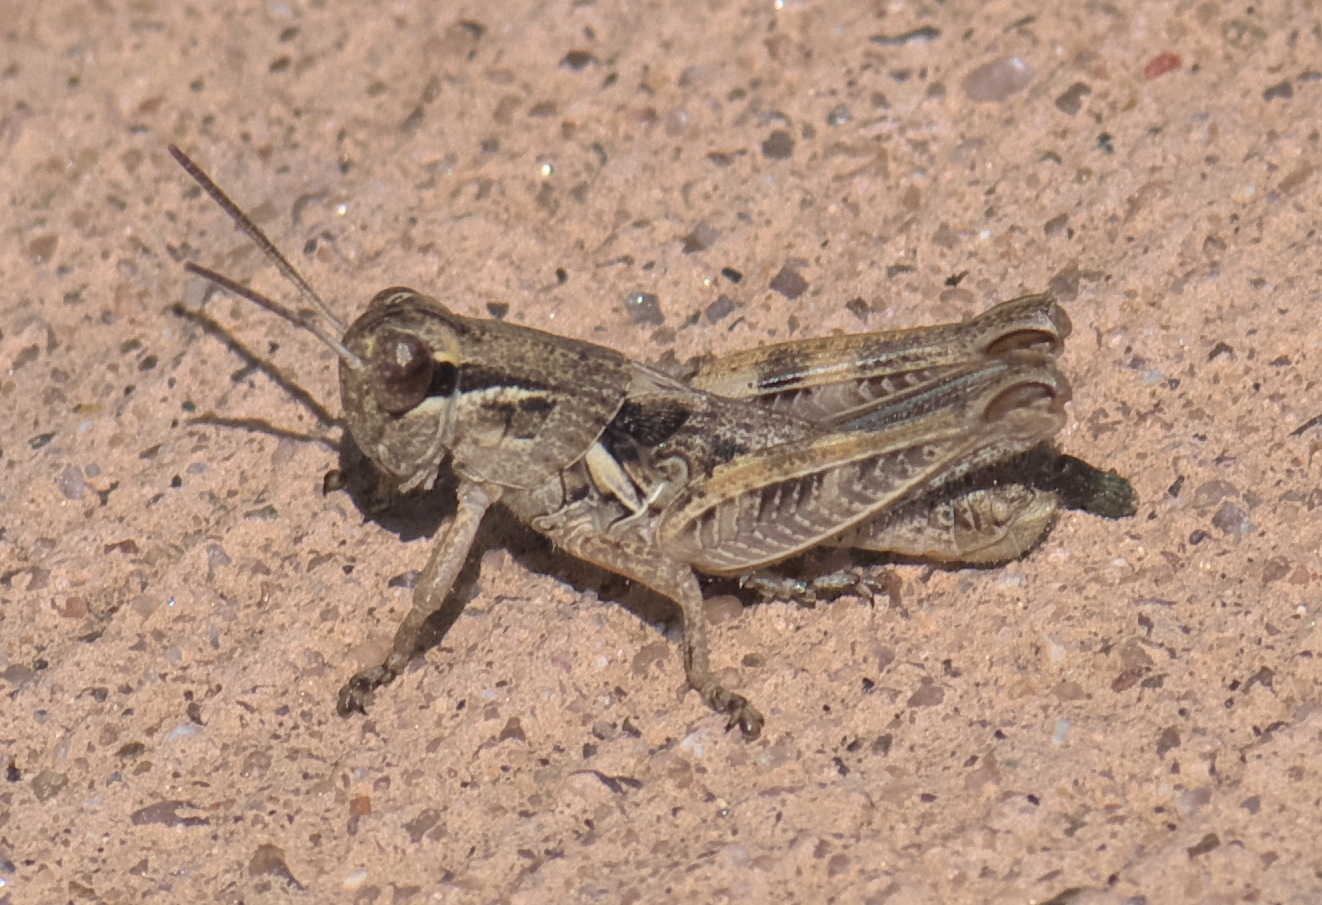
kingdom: Animalia
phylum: Arthropoda
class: Insecta
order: Orthoptera
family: Acrididae
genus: Melanoplus
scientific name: Melanoplus lakinus
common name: Lakin grasshopper
